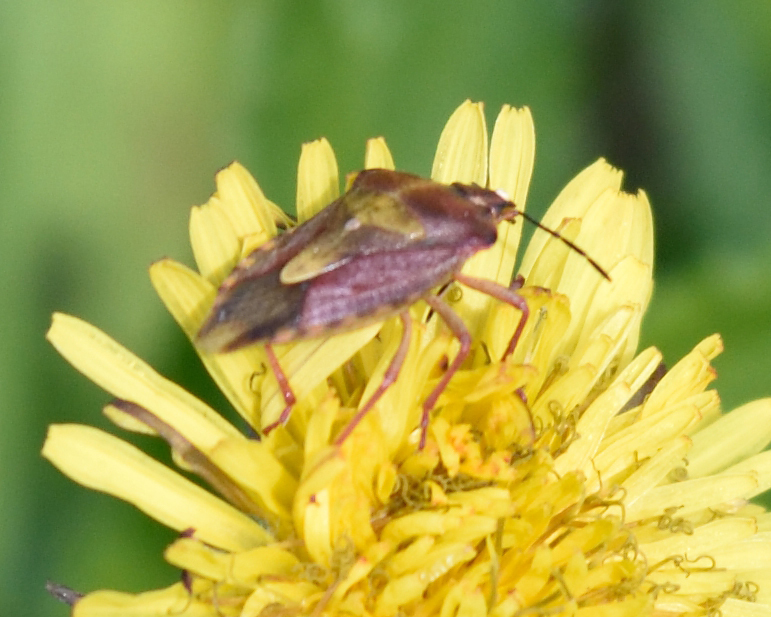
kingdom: Animalia
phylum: Arthropoda
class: Insecta
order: Hemiptera
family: Pentatomidae
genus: Carpocoris
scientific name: Carpocoris purpureipennis
